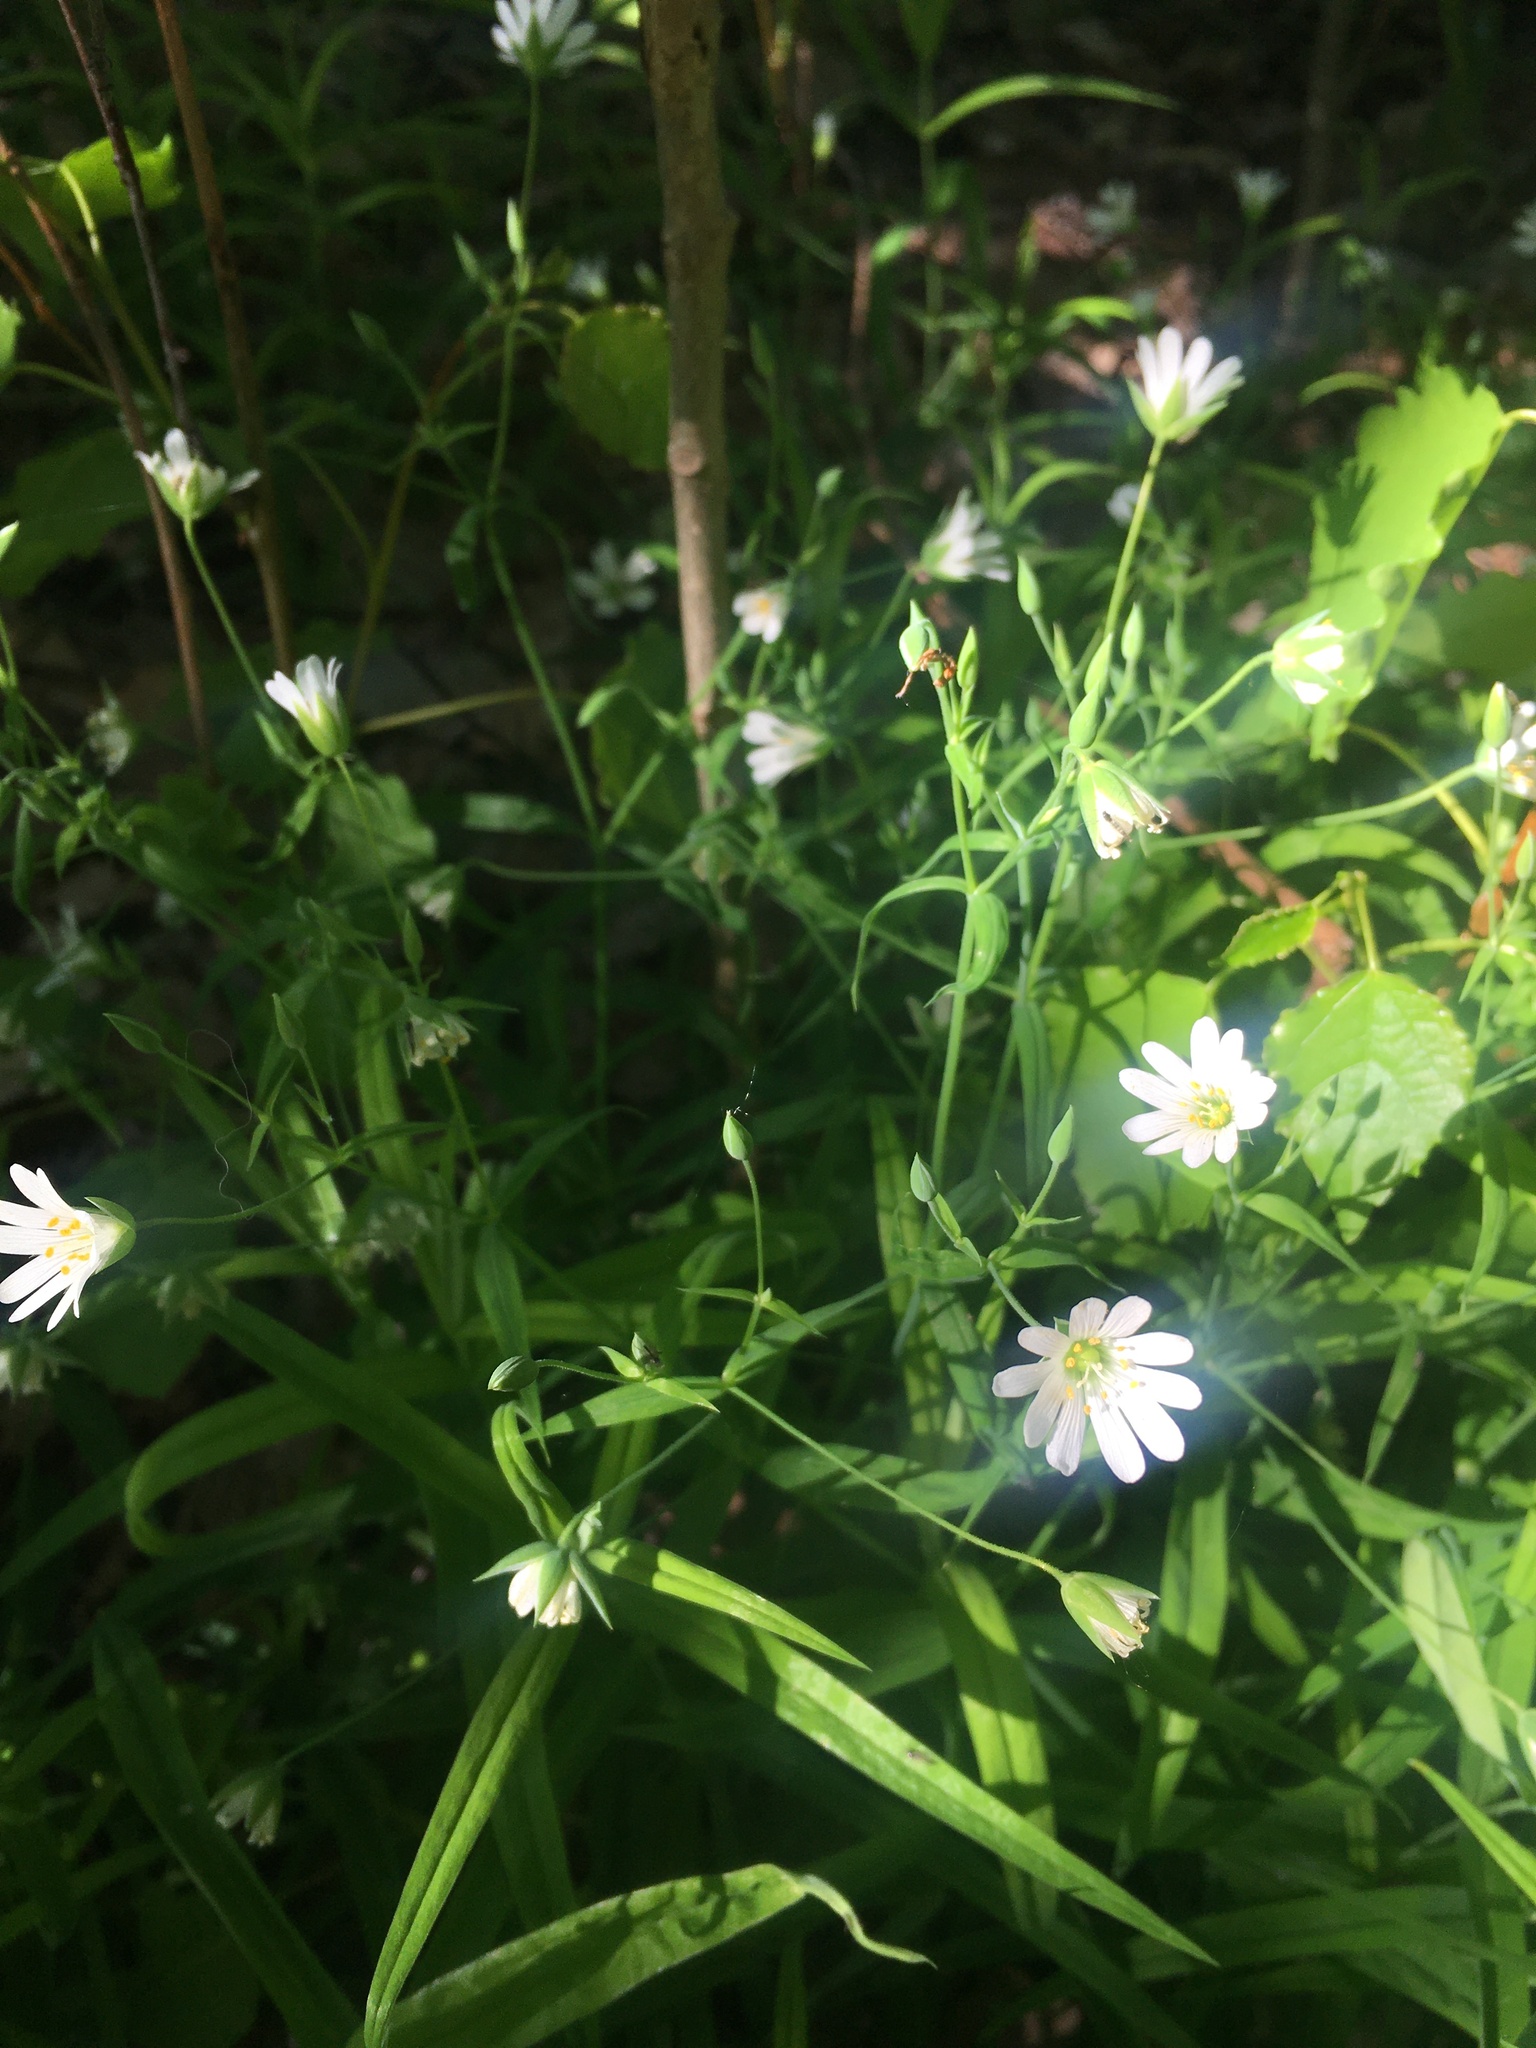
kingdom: Plantae
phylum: Tracheophyta
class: Magnoliopsida
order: Caryophyllales
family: Caryophyllaceae
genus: Rabelera
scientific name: Rabelera holostea
